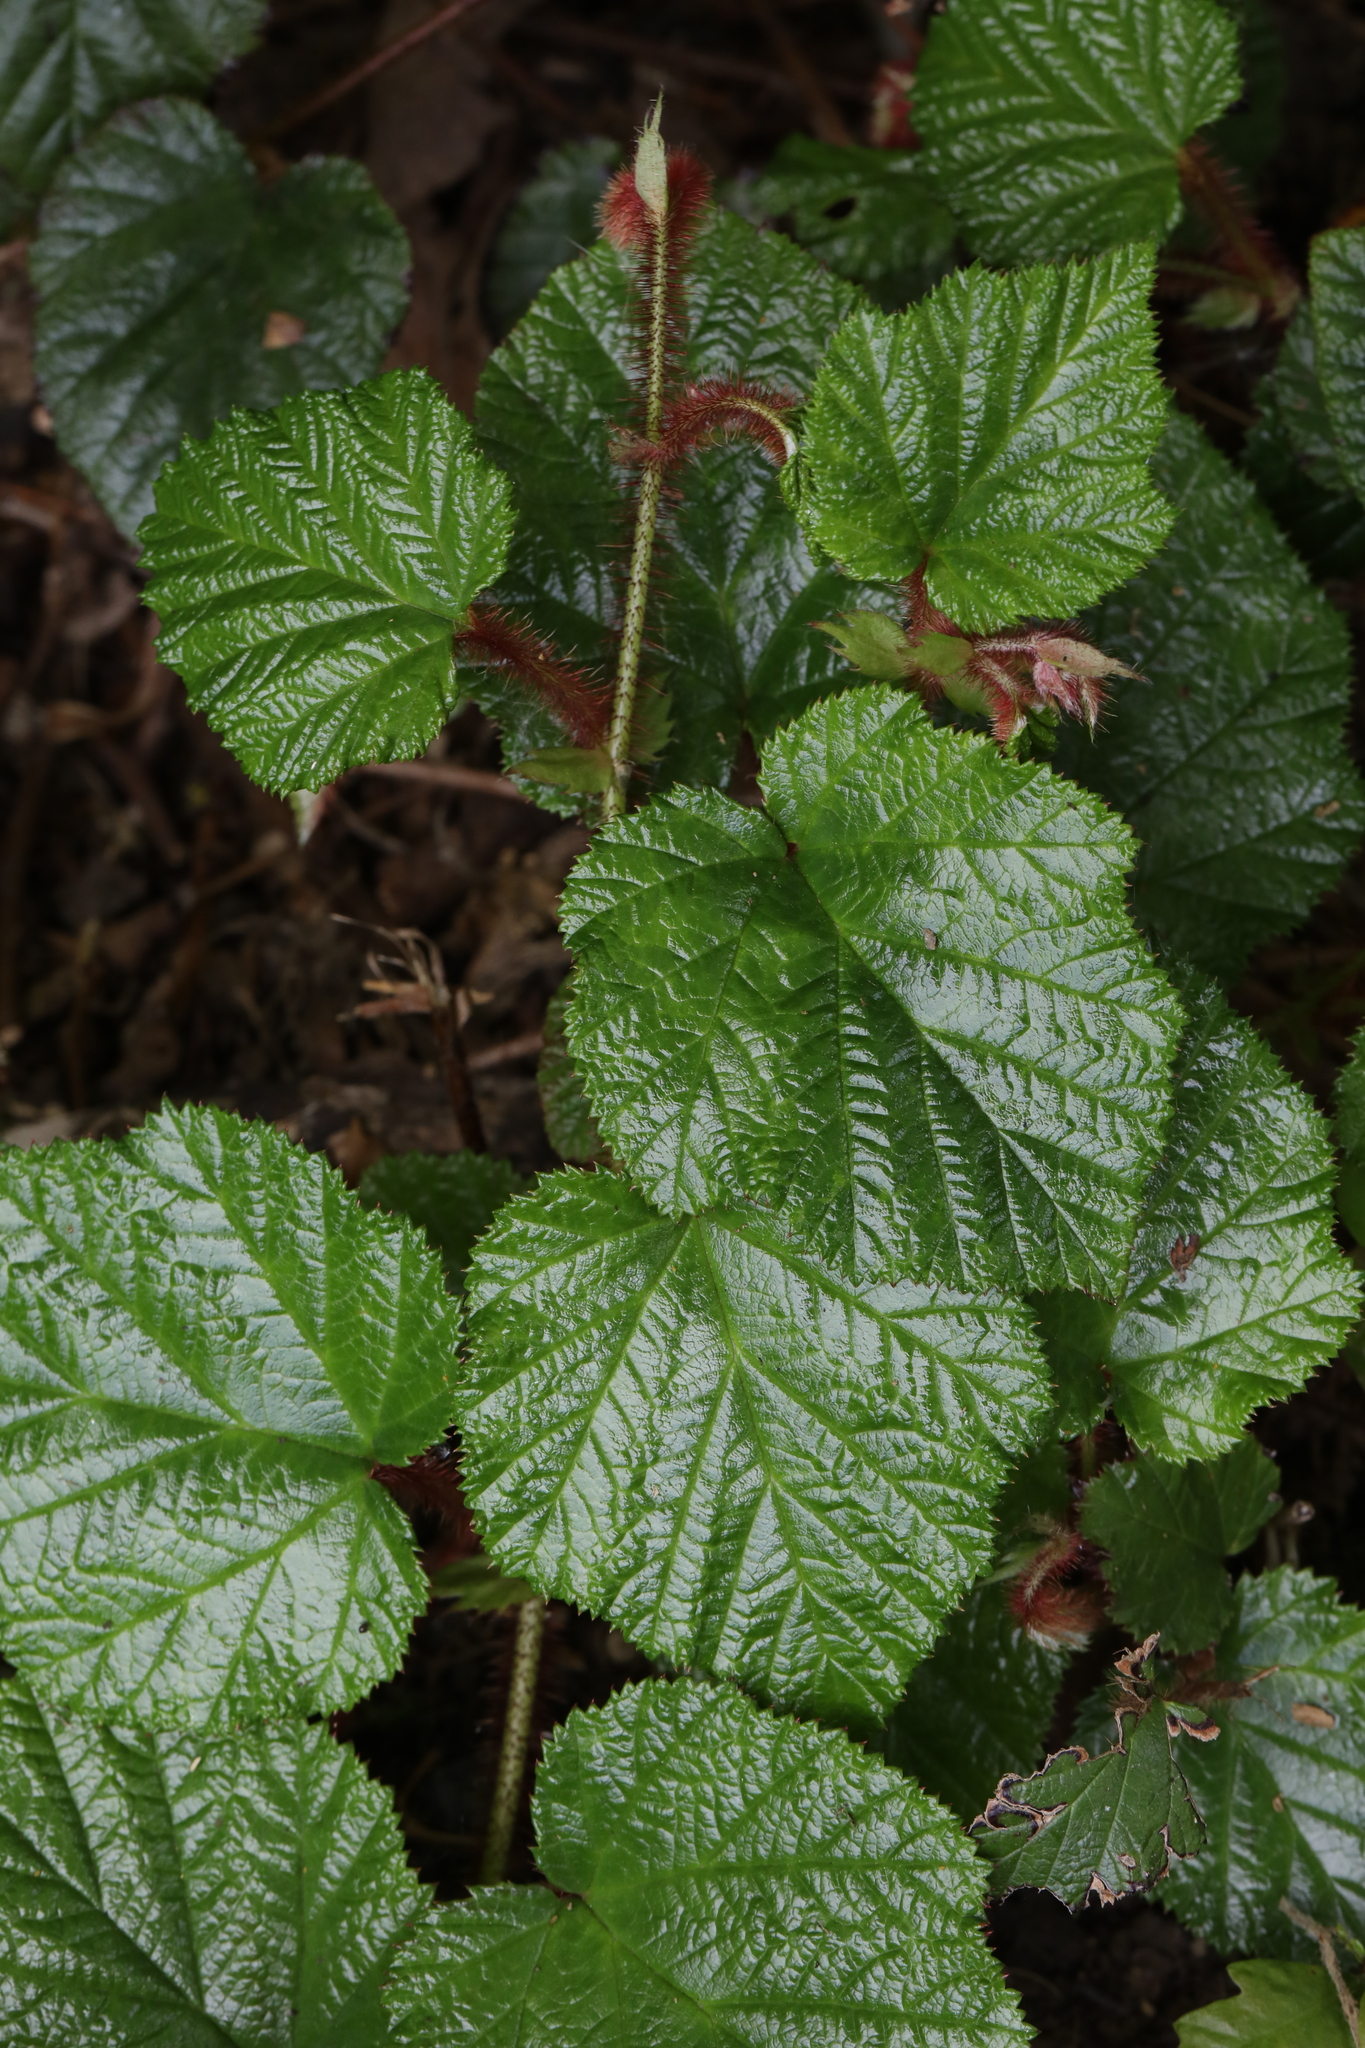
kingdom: Plantae
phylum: Tracheophyta
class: Magnoliopsida
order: Rosales
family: Rosaceae
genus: Rubus
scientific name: Rubus tricolor
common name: Chinese bramble
